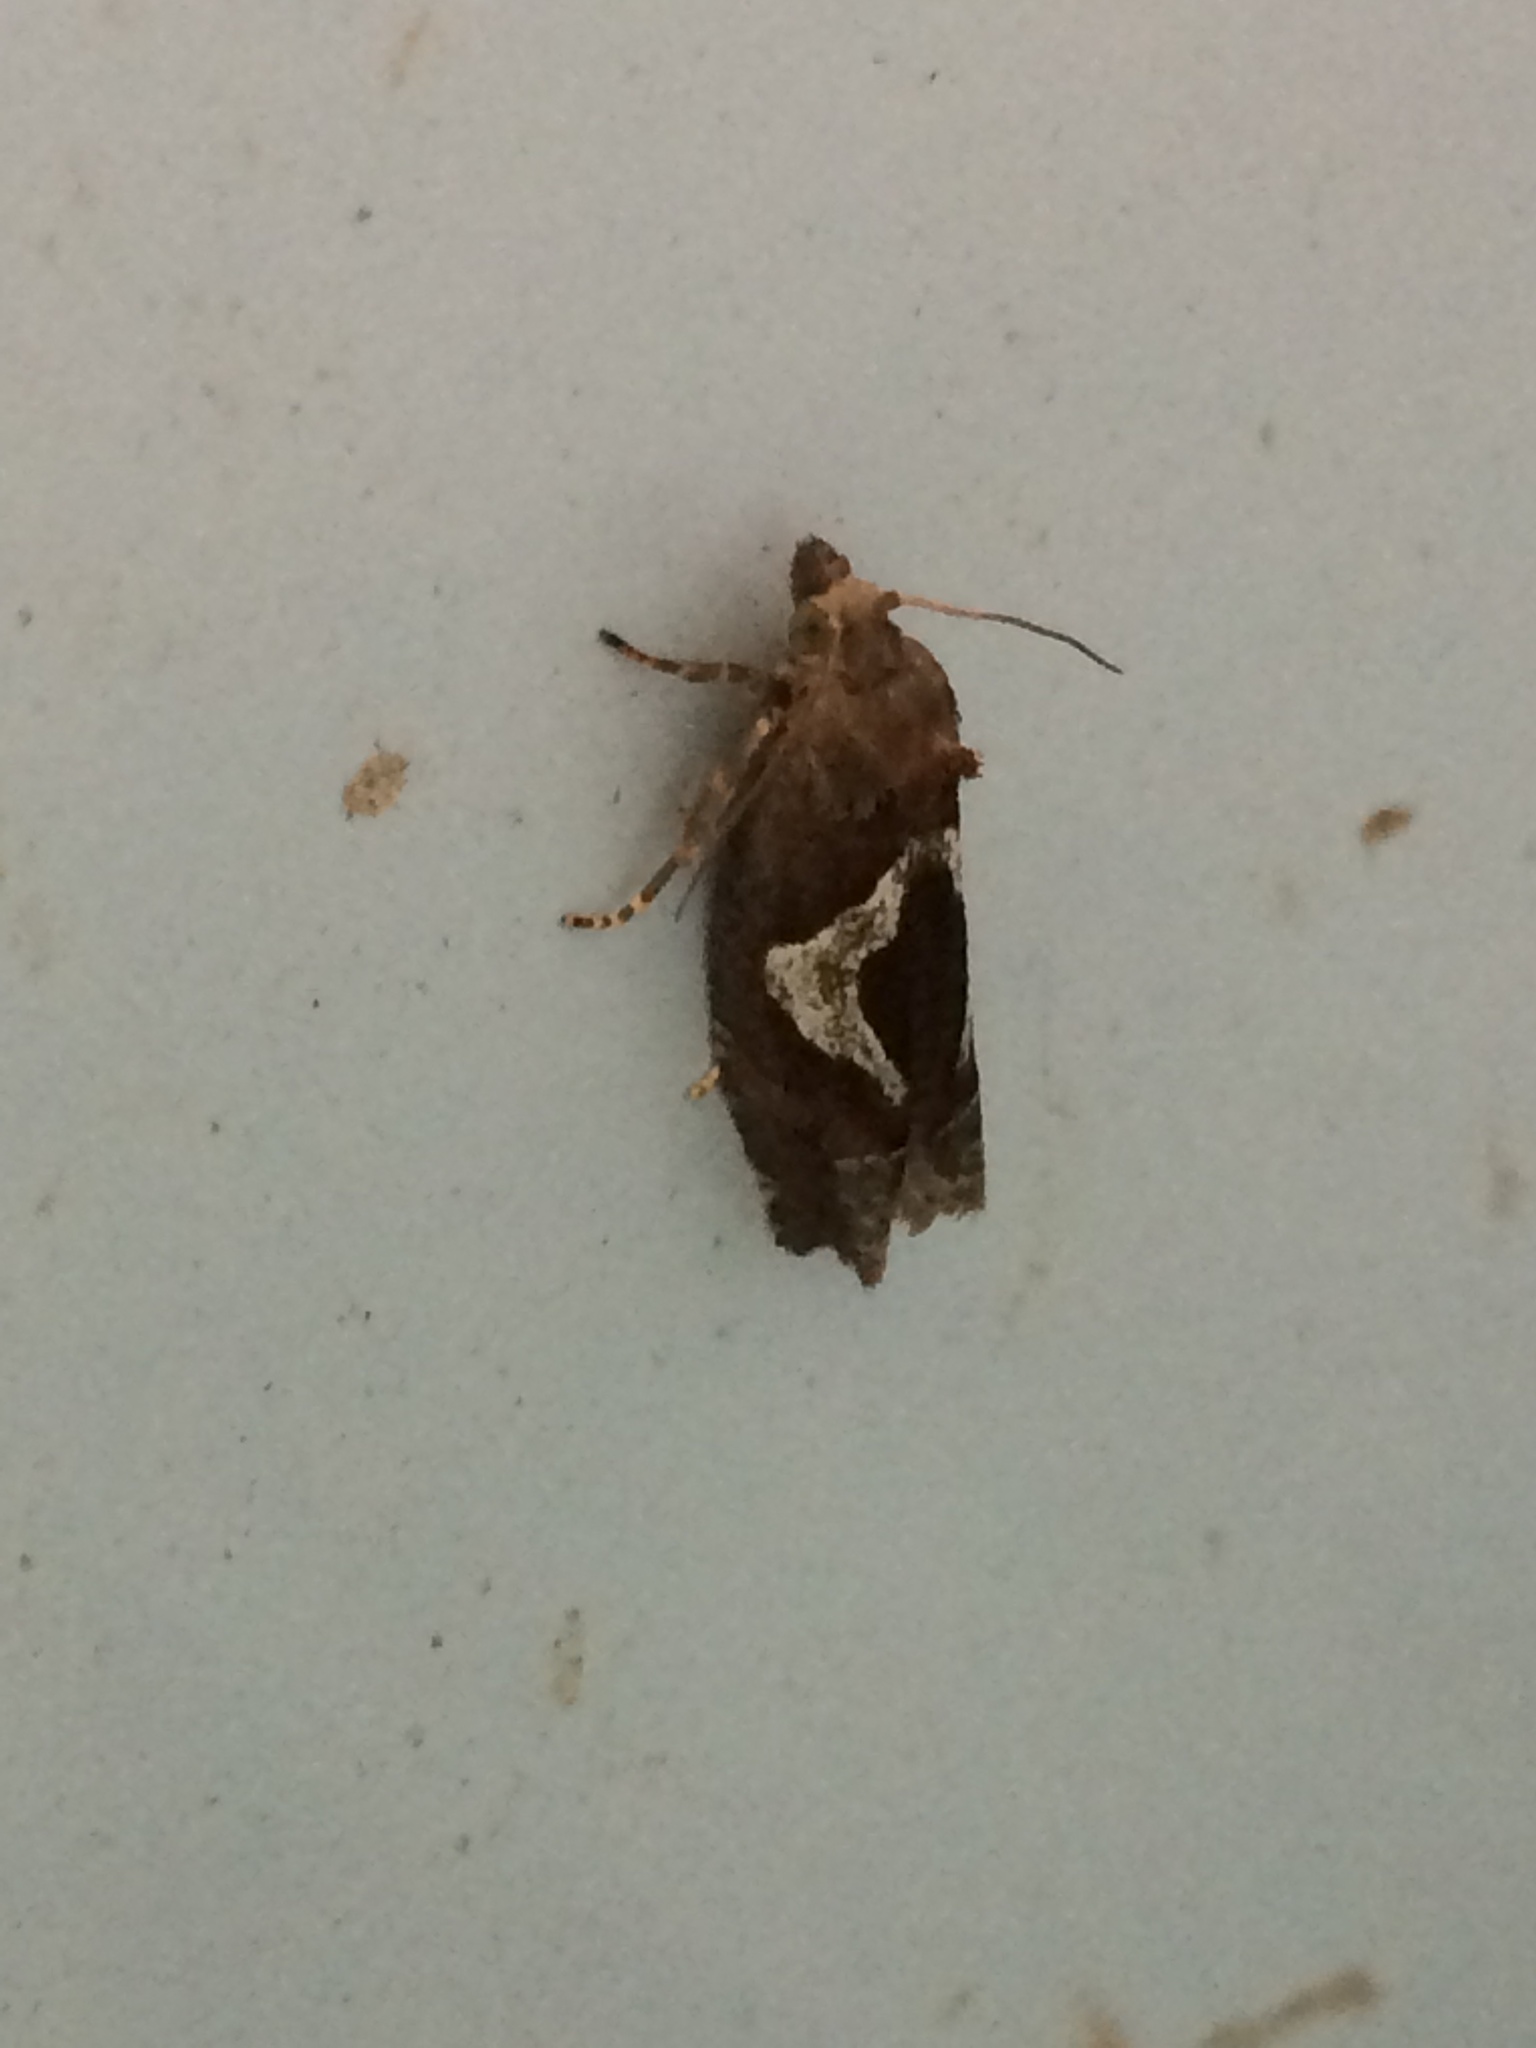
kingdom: Animalia
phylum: Arthropoda
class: Insecta
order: Lepidoptera
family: Tortricidae
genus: Epiblema
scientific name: Epiblema foenella
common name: White-foot bell
